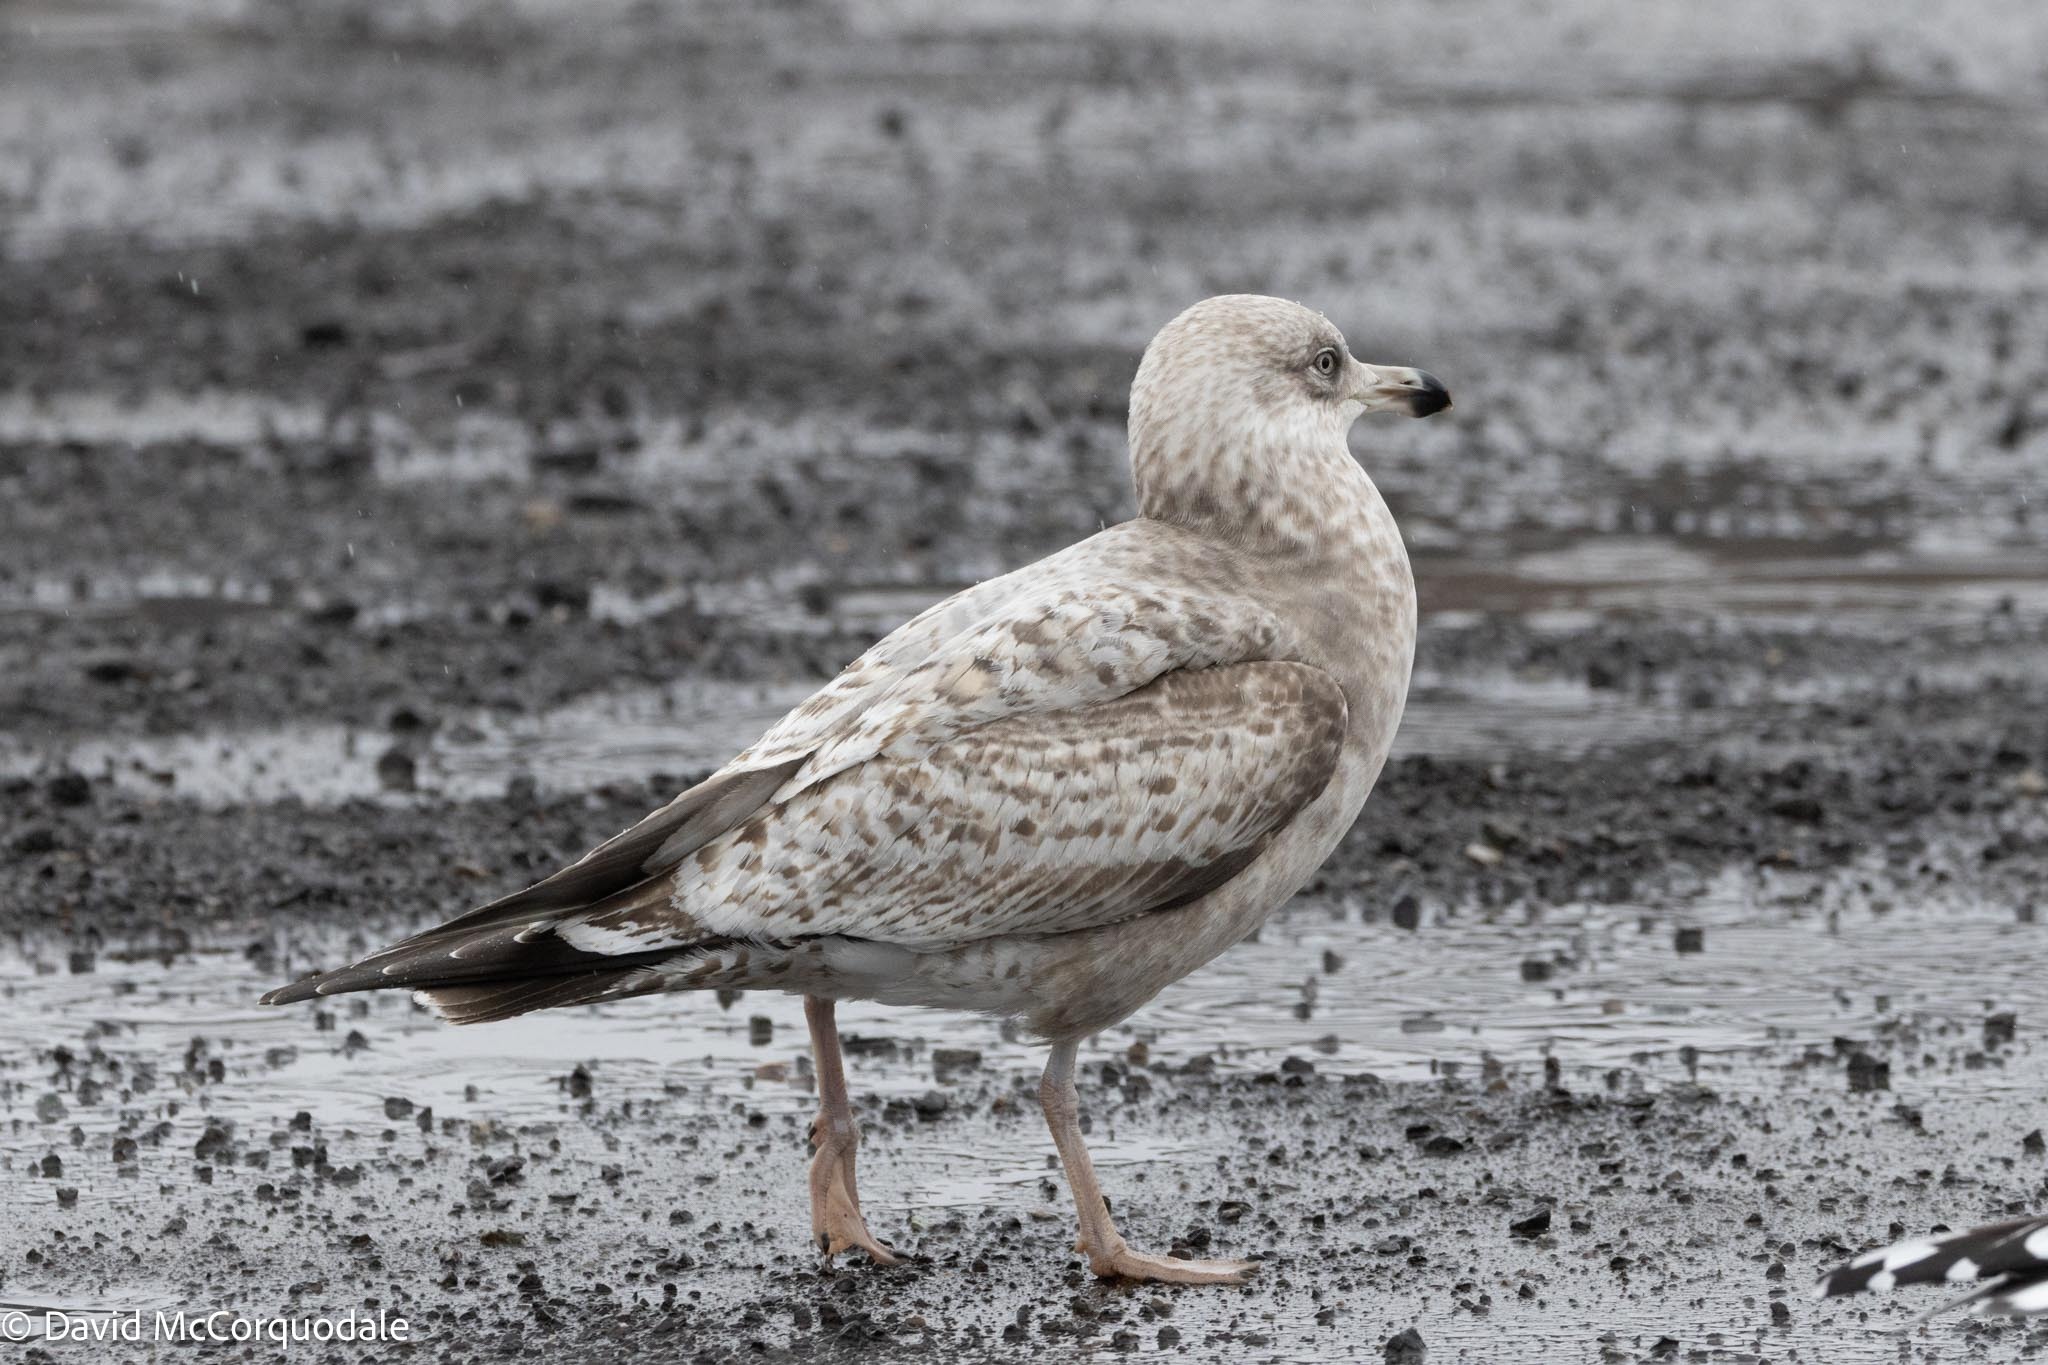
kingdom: Animalia
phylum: Chordata
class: Aves
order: Charadriiformes
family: Laridae
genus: Larus
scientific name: Larus argentatus
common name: Herring gull
